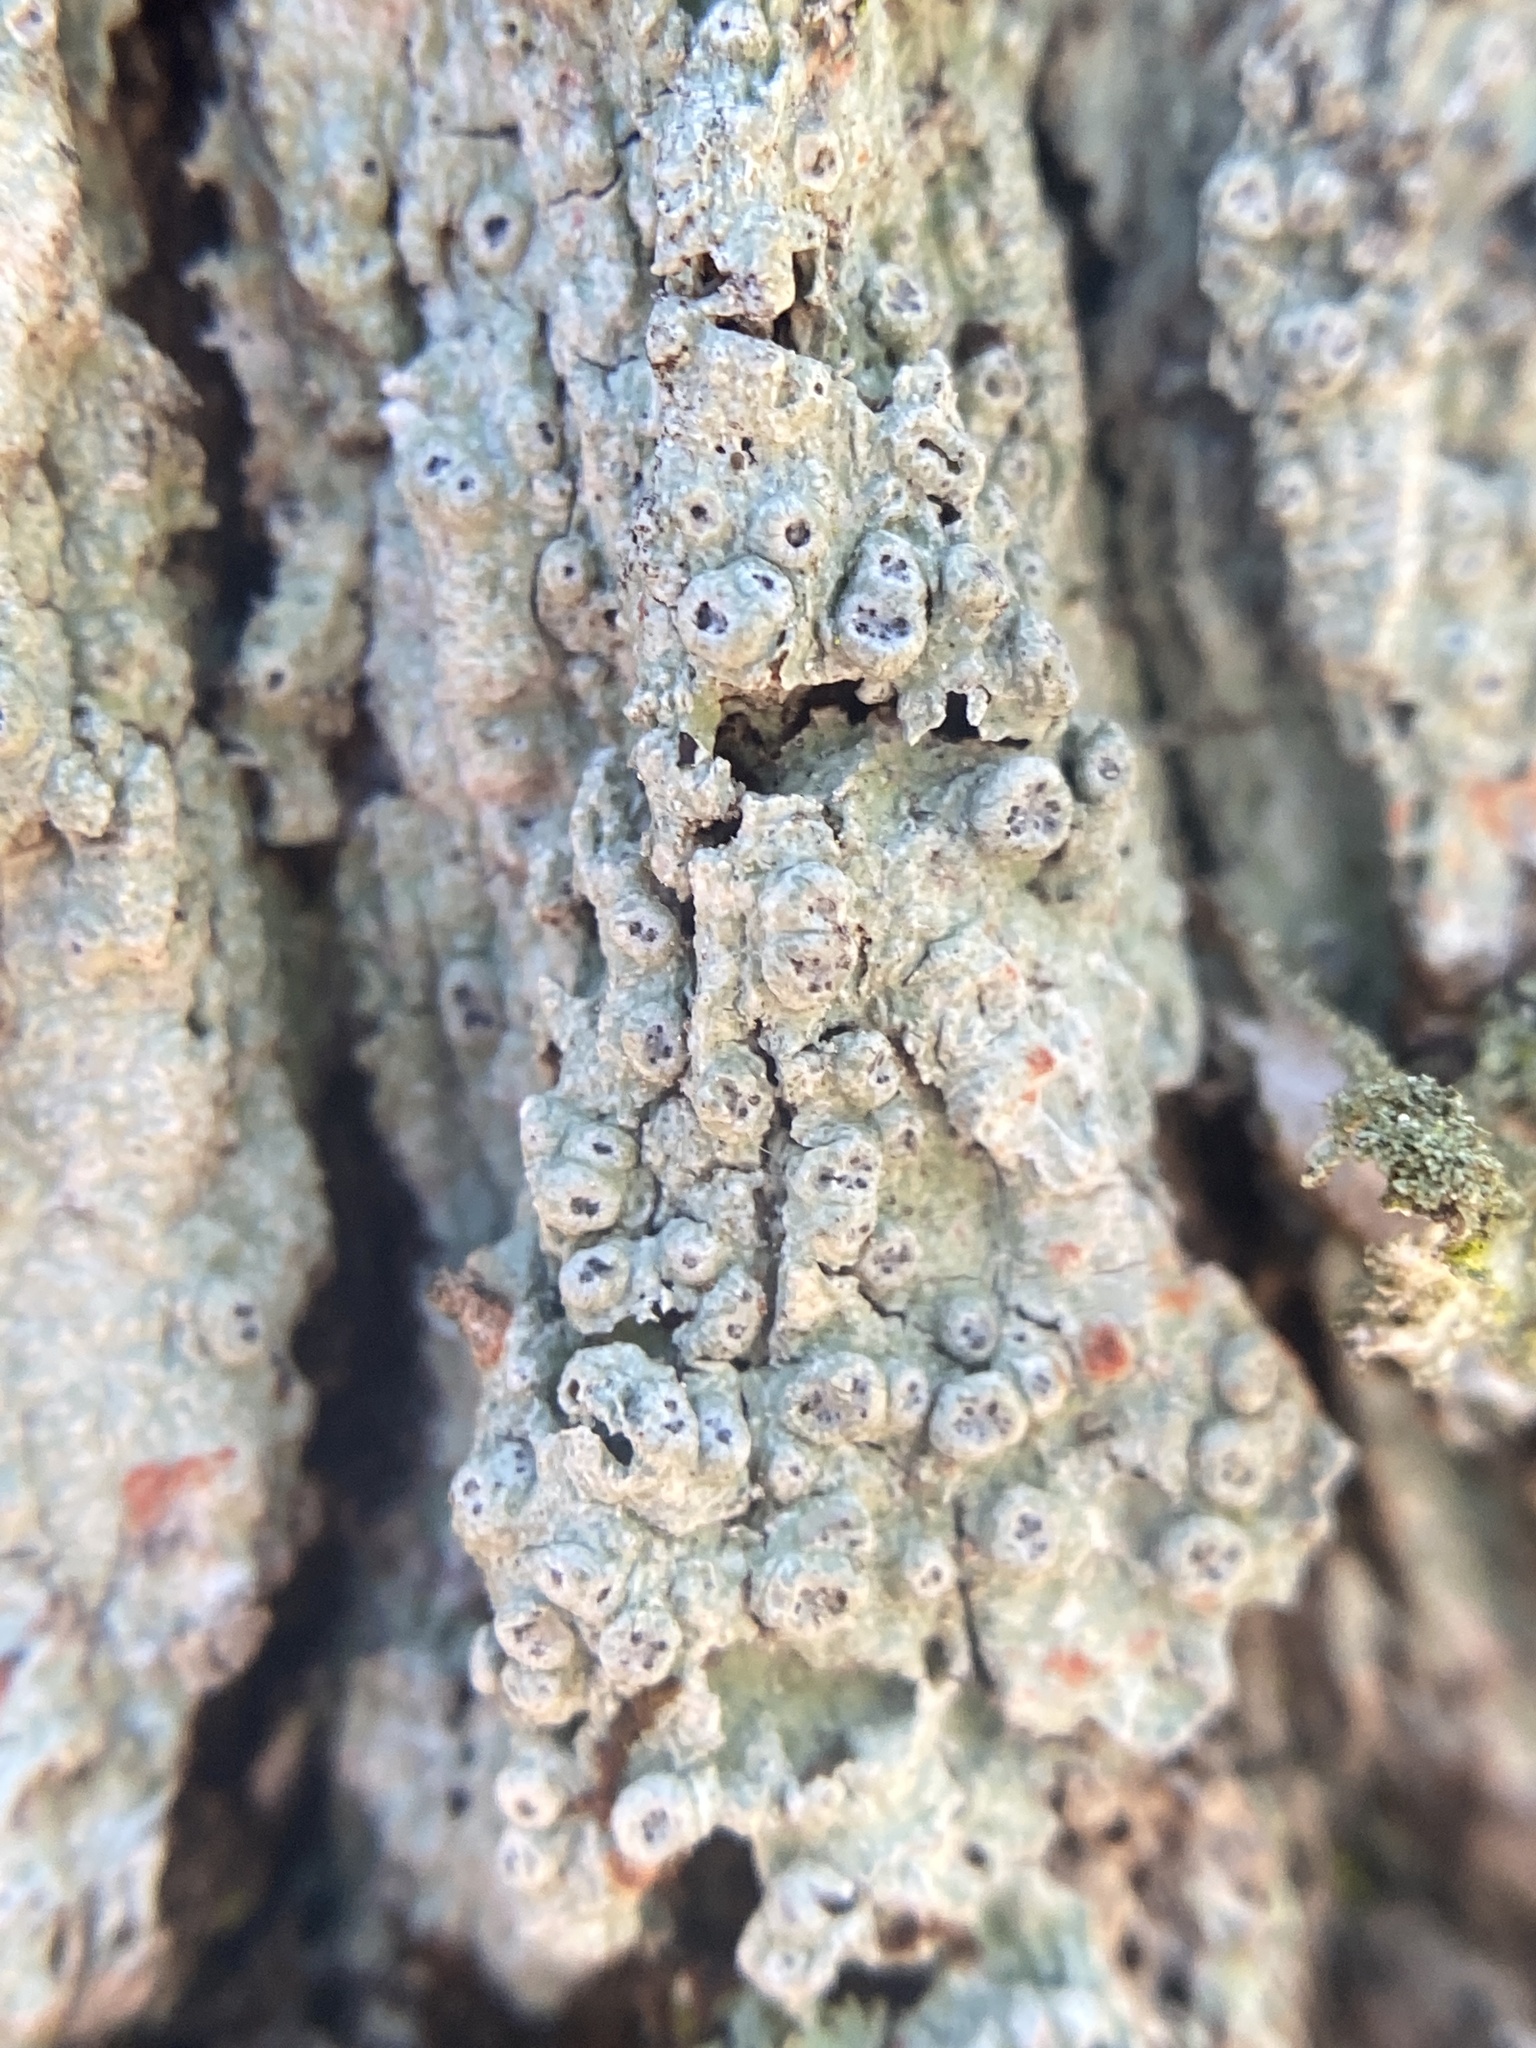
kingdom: Fungi
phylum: Ascomycota
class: Lecanoromycetes
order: Pertusariales
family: Pertusariaceae
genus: Pertusaria
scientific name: Pertusaria sinusmexicani
